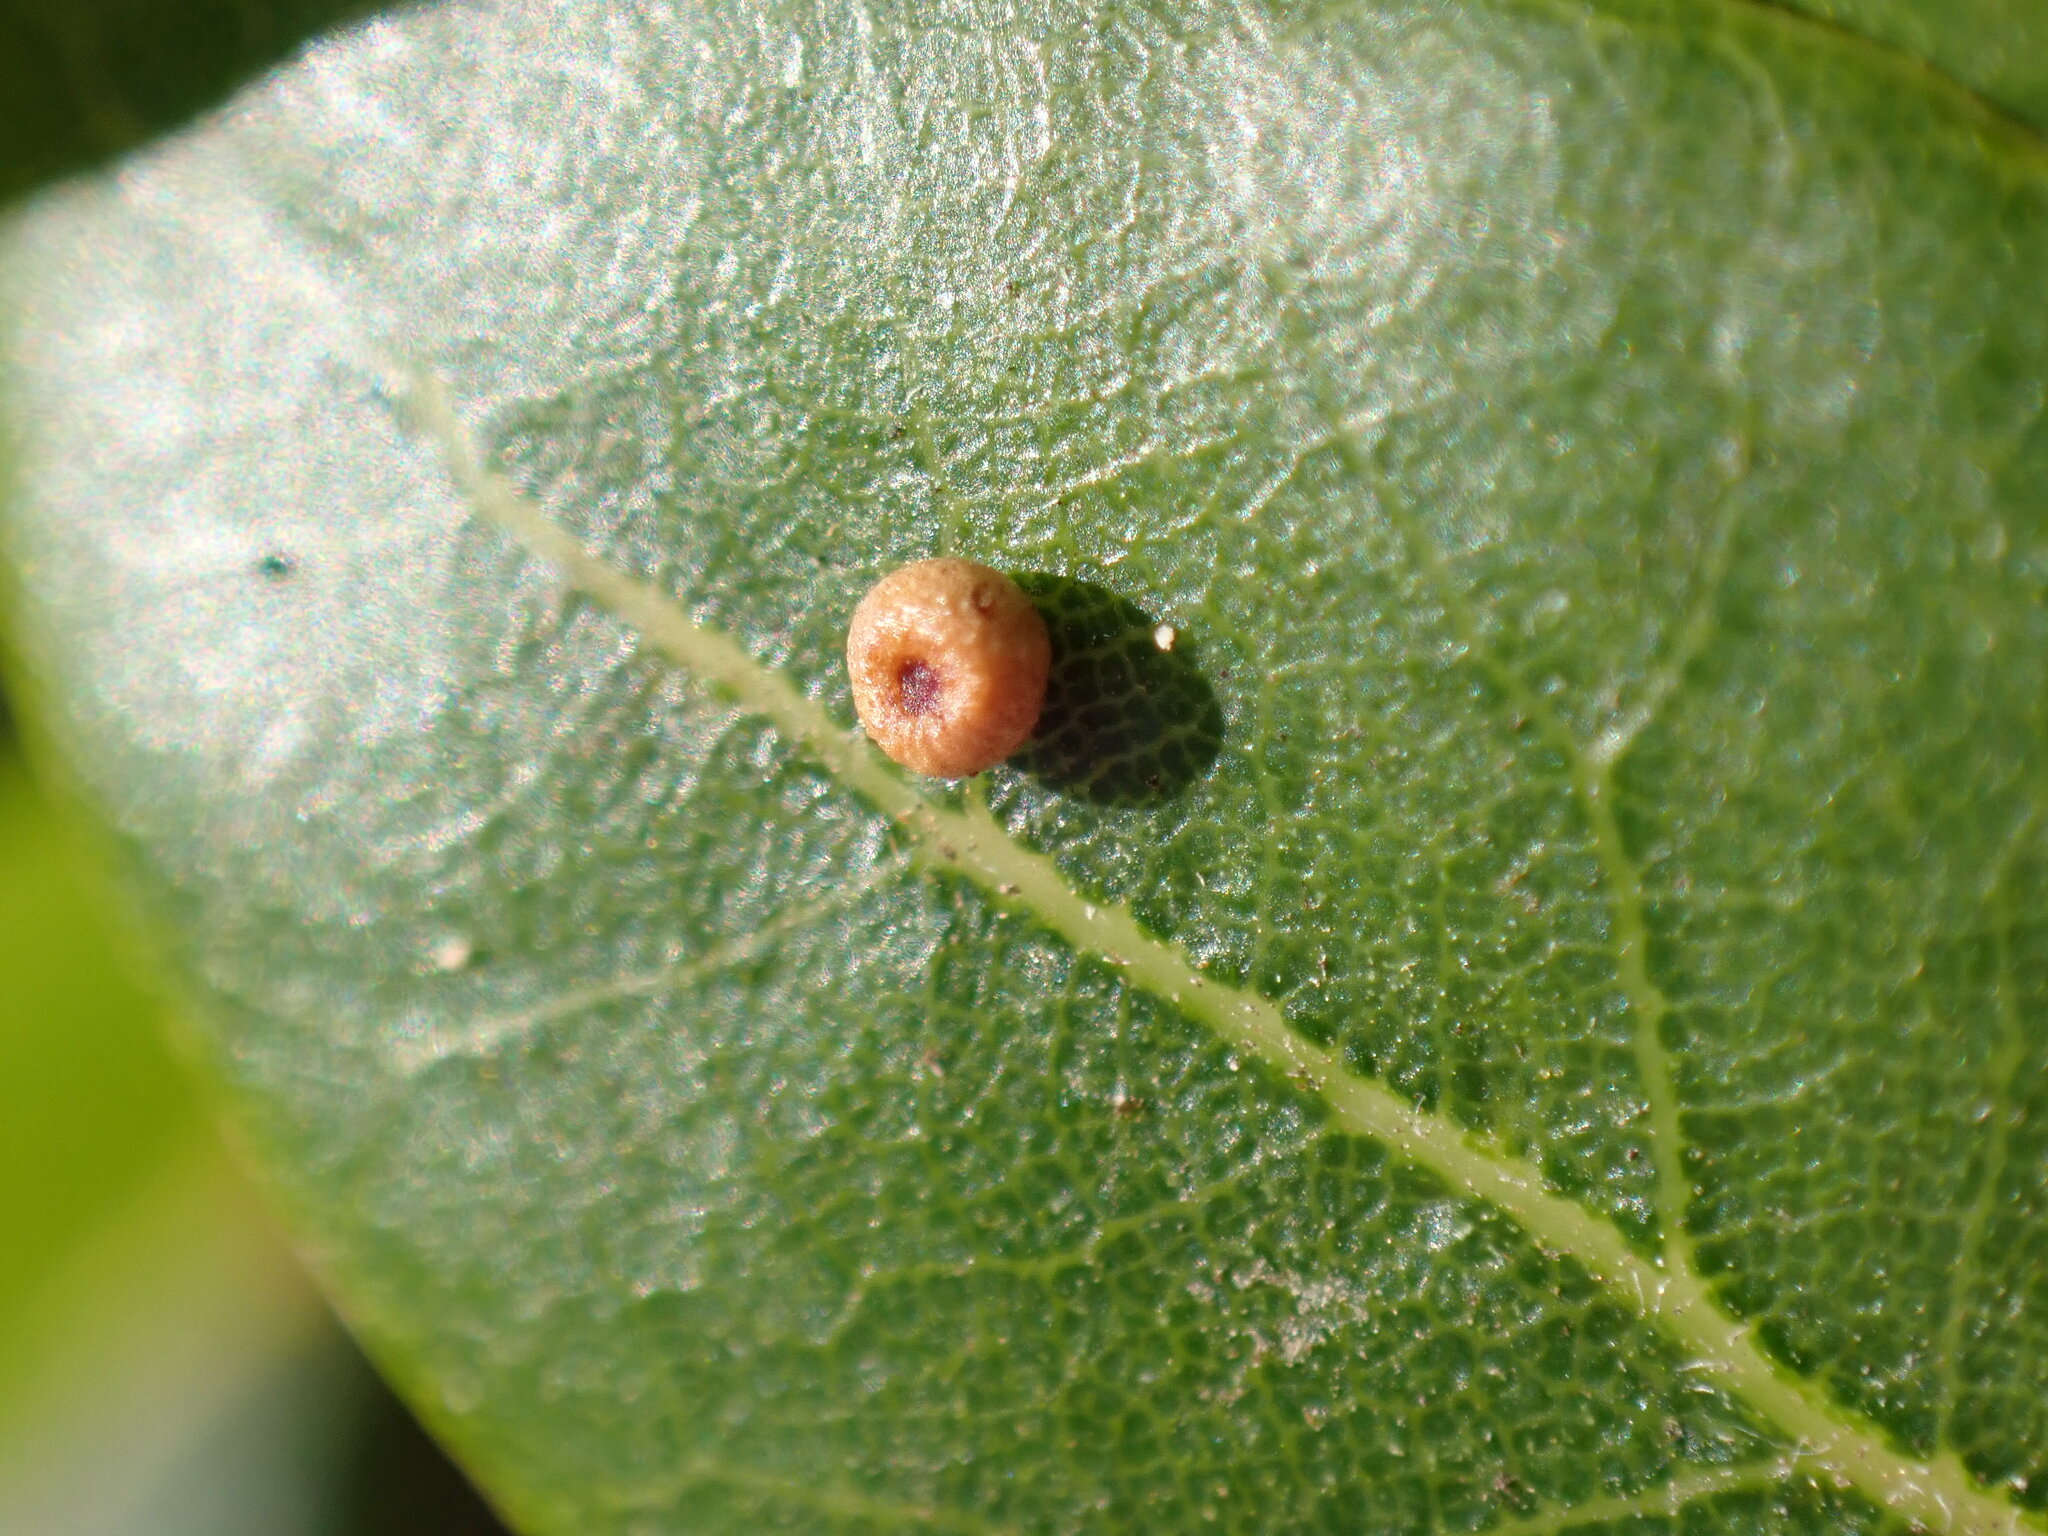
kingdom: Animalia
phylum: Arthropoda
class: Insecta
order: Hymenoptera
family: Cynipidae
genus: Dryocosmus
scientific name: Dryocosmus
